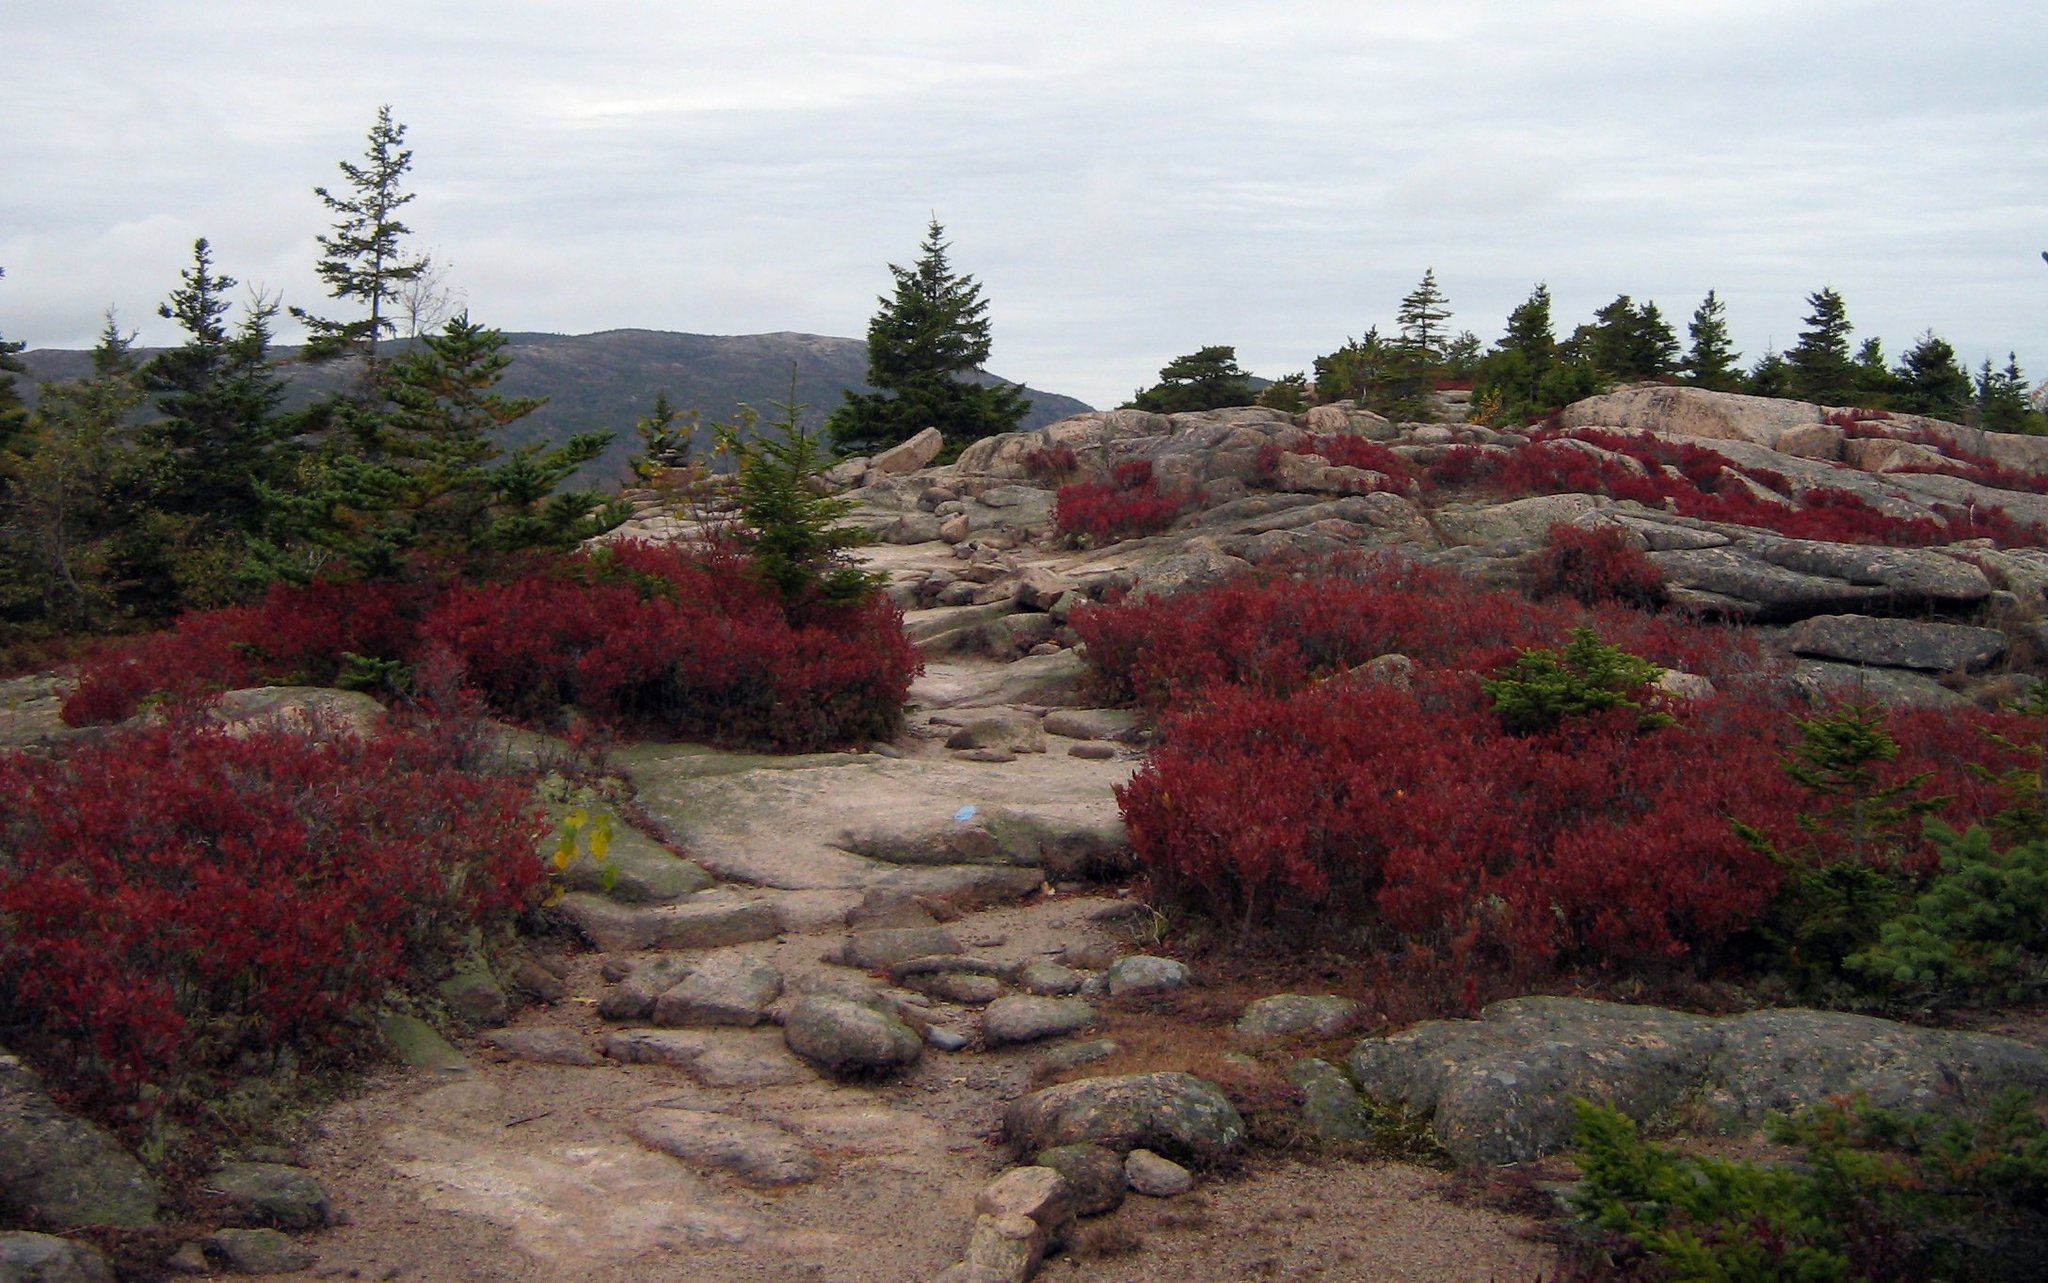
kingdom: Plantae
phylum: Tracheophyta
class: Magnoliopsida
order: Ericales
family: Ericaceae
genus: Gaylussacia
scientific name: Gaylussacia baccata
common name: Black huckleberry
